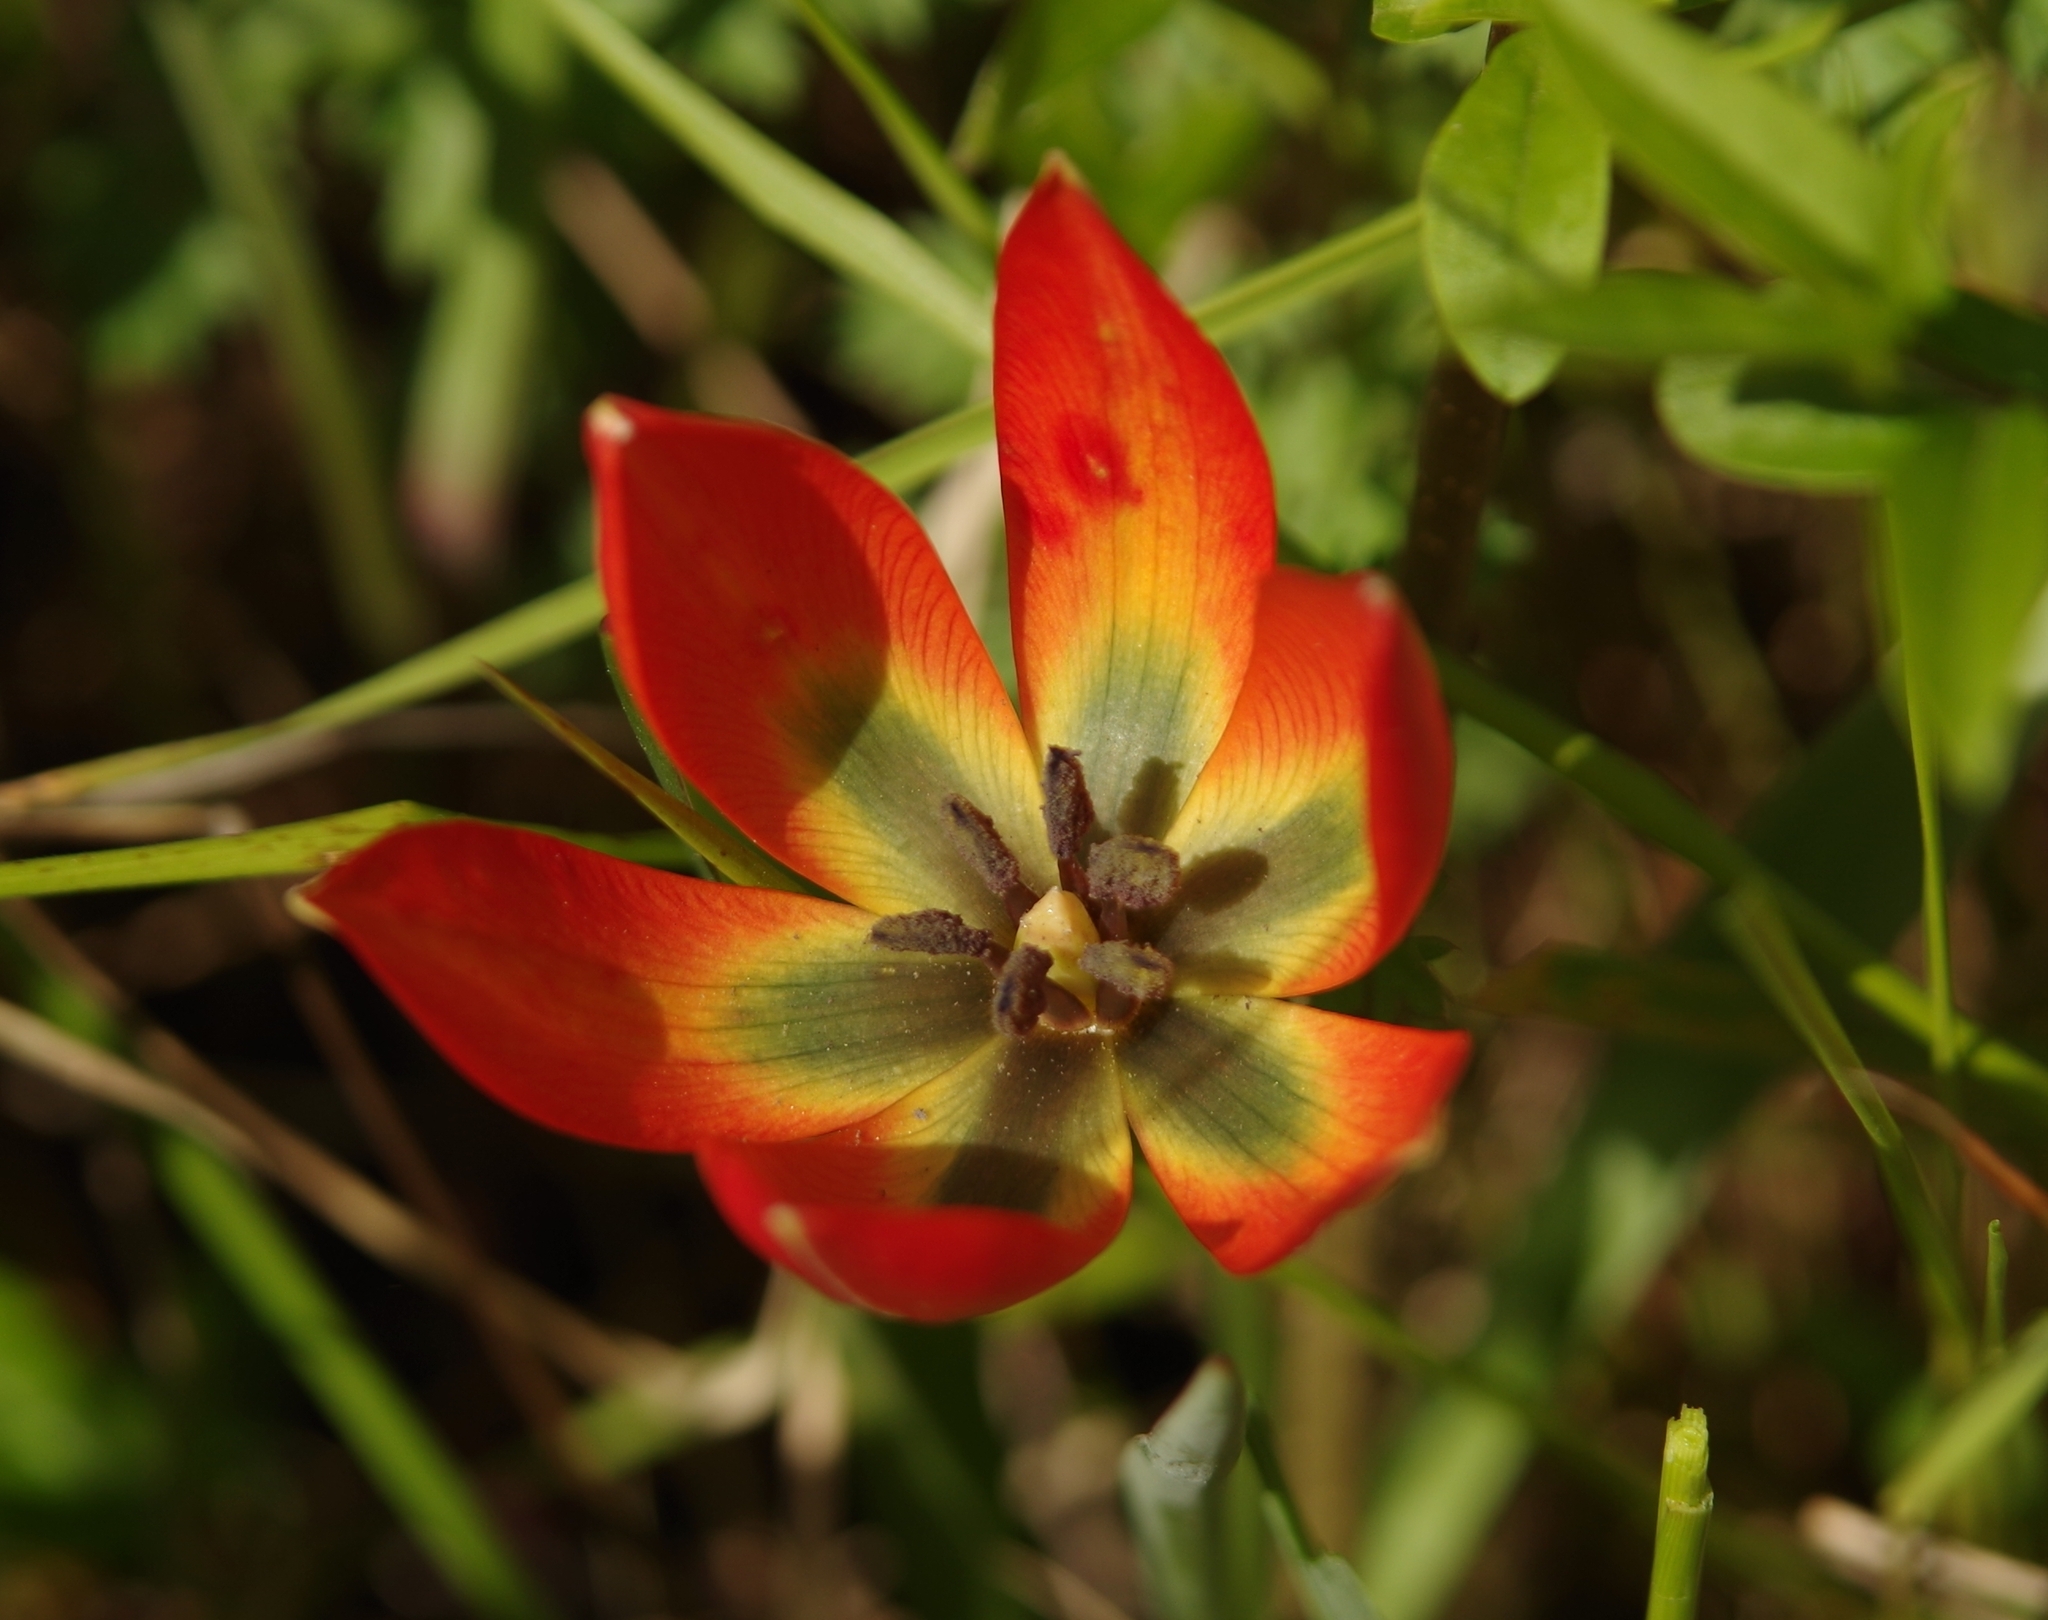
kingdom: Plantae
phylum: Tracheophyta
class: Liliopsida
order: Liliales
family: Liliaceae
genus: Tulipa
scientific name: Tulipa orphanidea
